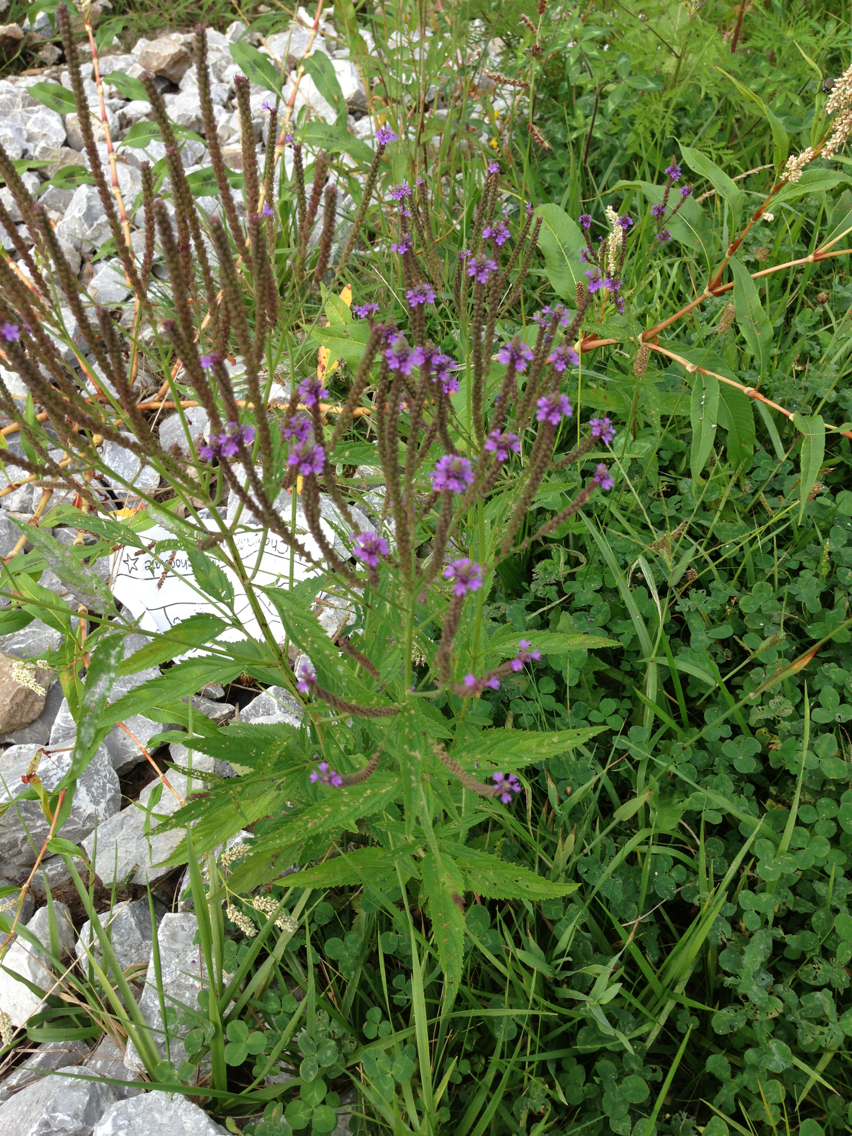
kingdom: Plantae
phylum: Tracheophyta
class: Magnoliopsida
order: Lamiales
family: Verbenaceae
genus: Verbena
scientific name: Verbena hastata
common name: American blue vervain
